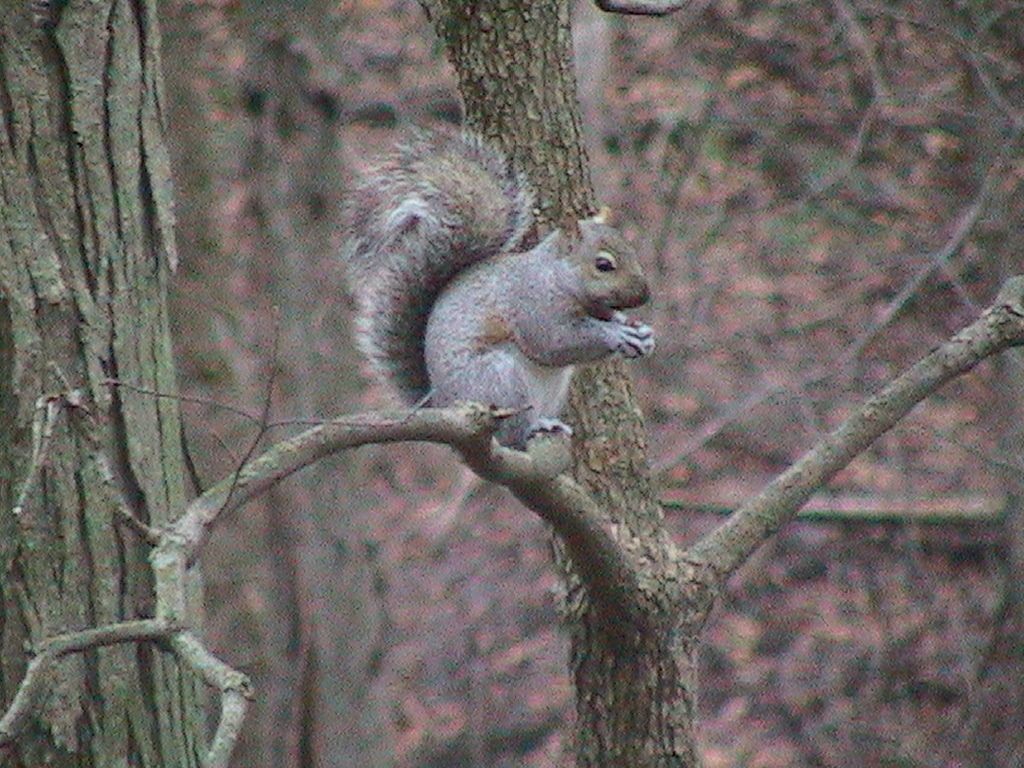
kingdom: Animalia
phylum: Chordata
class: Mammalia
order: Rodentia
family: Sciuridae
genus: Sciurus
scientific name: Sciurus carolinensis
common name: Eastern gray squirrel
